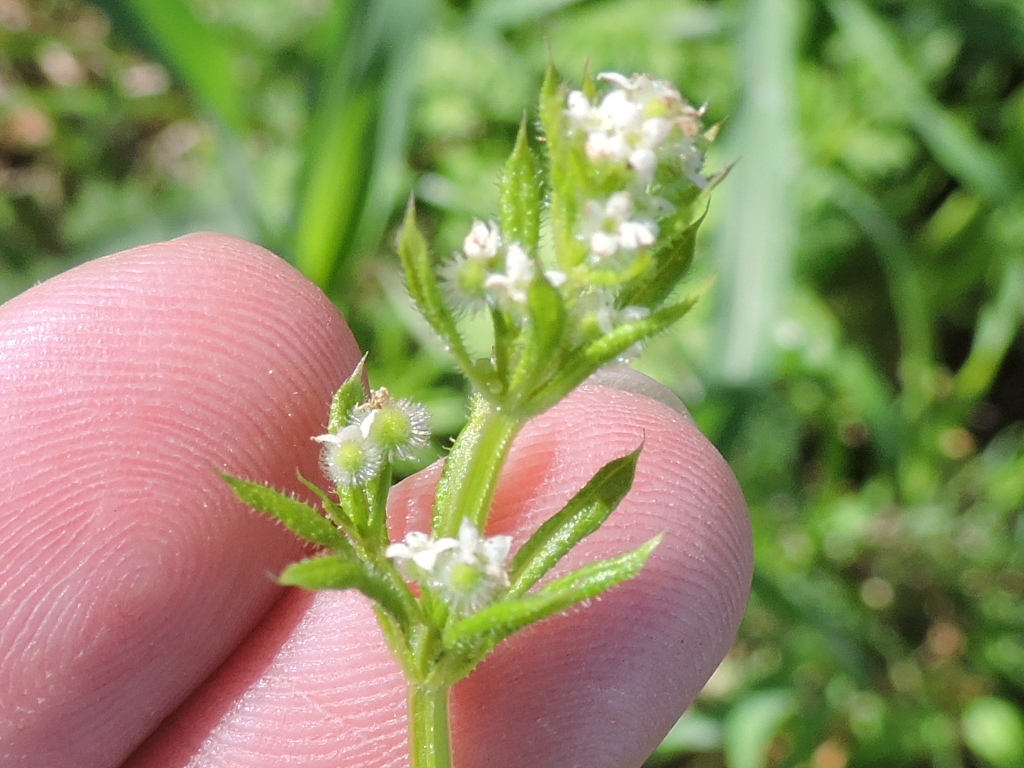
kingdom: Plantae
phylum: Tracheophyta
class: Magnoliopsida
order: Gentianales
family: Rubiaceae
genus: Galium
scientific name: Galium aparine
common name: Cleavers
